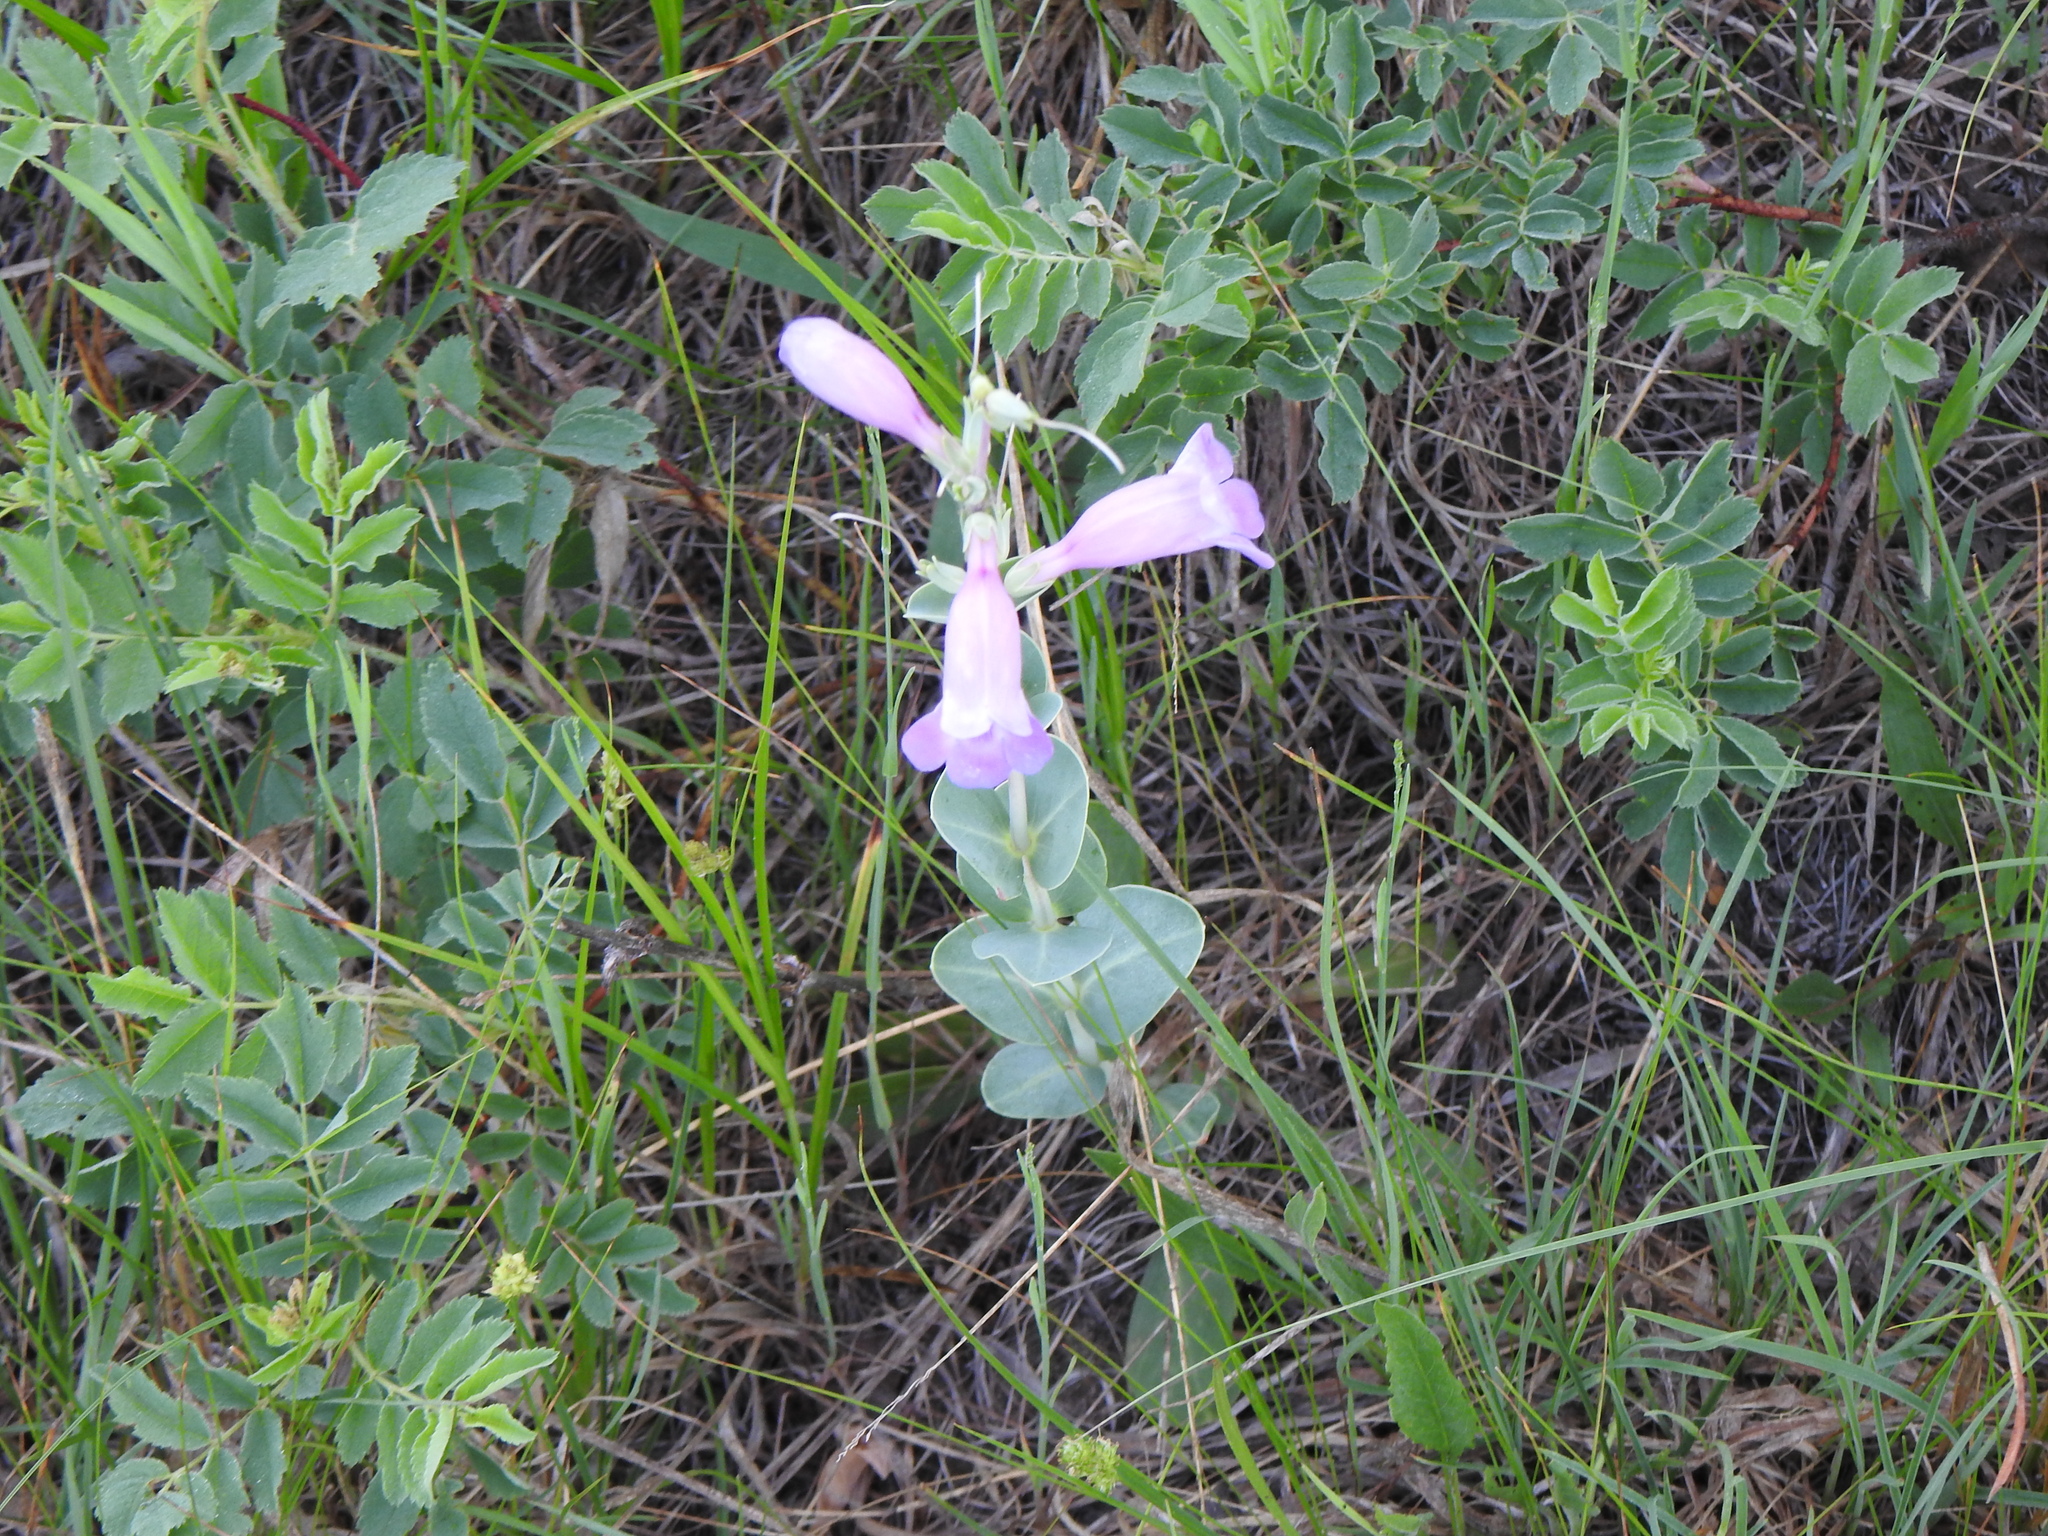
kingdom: Plantae
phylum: Tracheophyta
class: Magnoliopsida
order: Lamiales
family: Plantaginaceae
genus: Penstemon
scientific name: Penstemon
